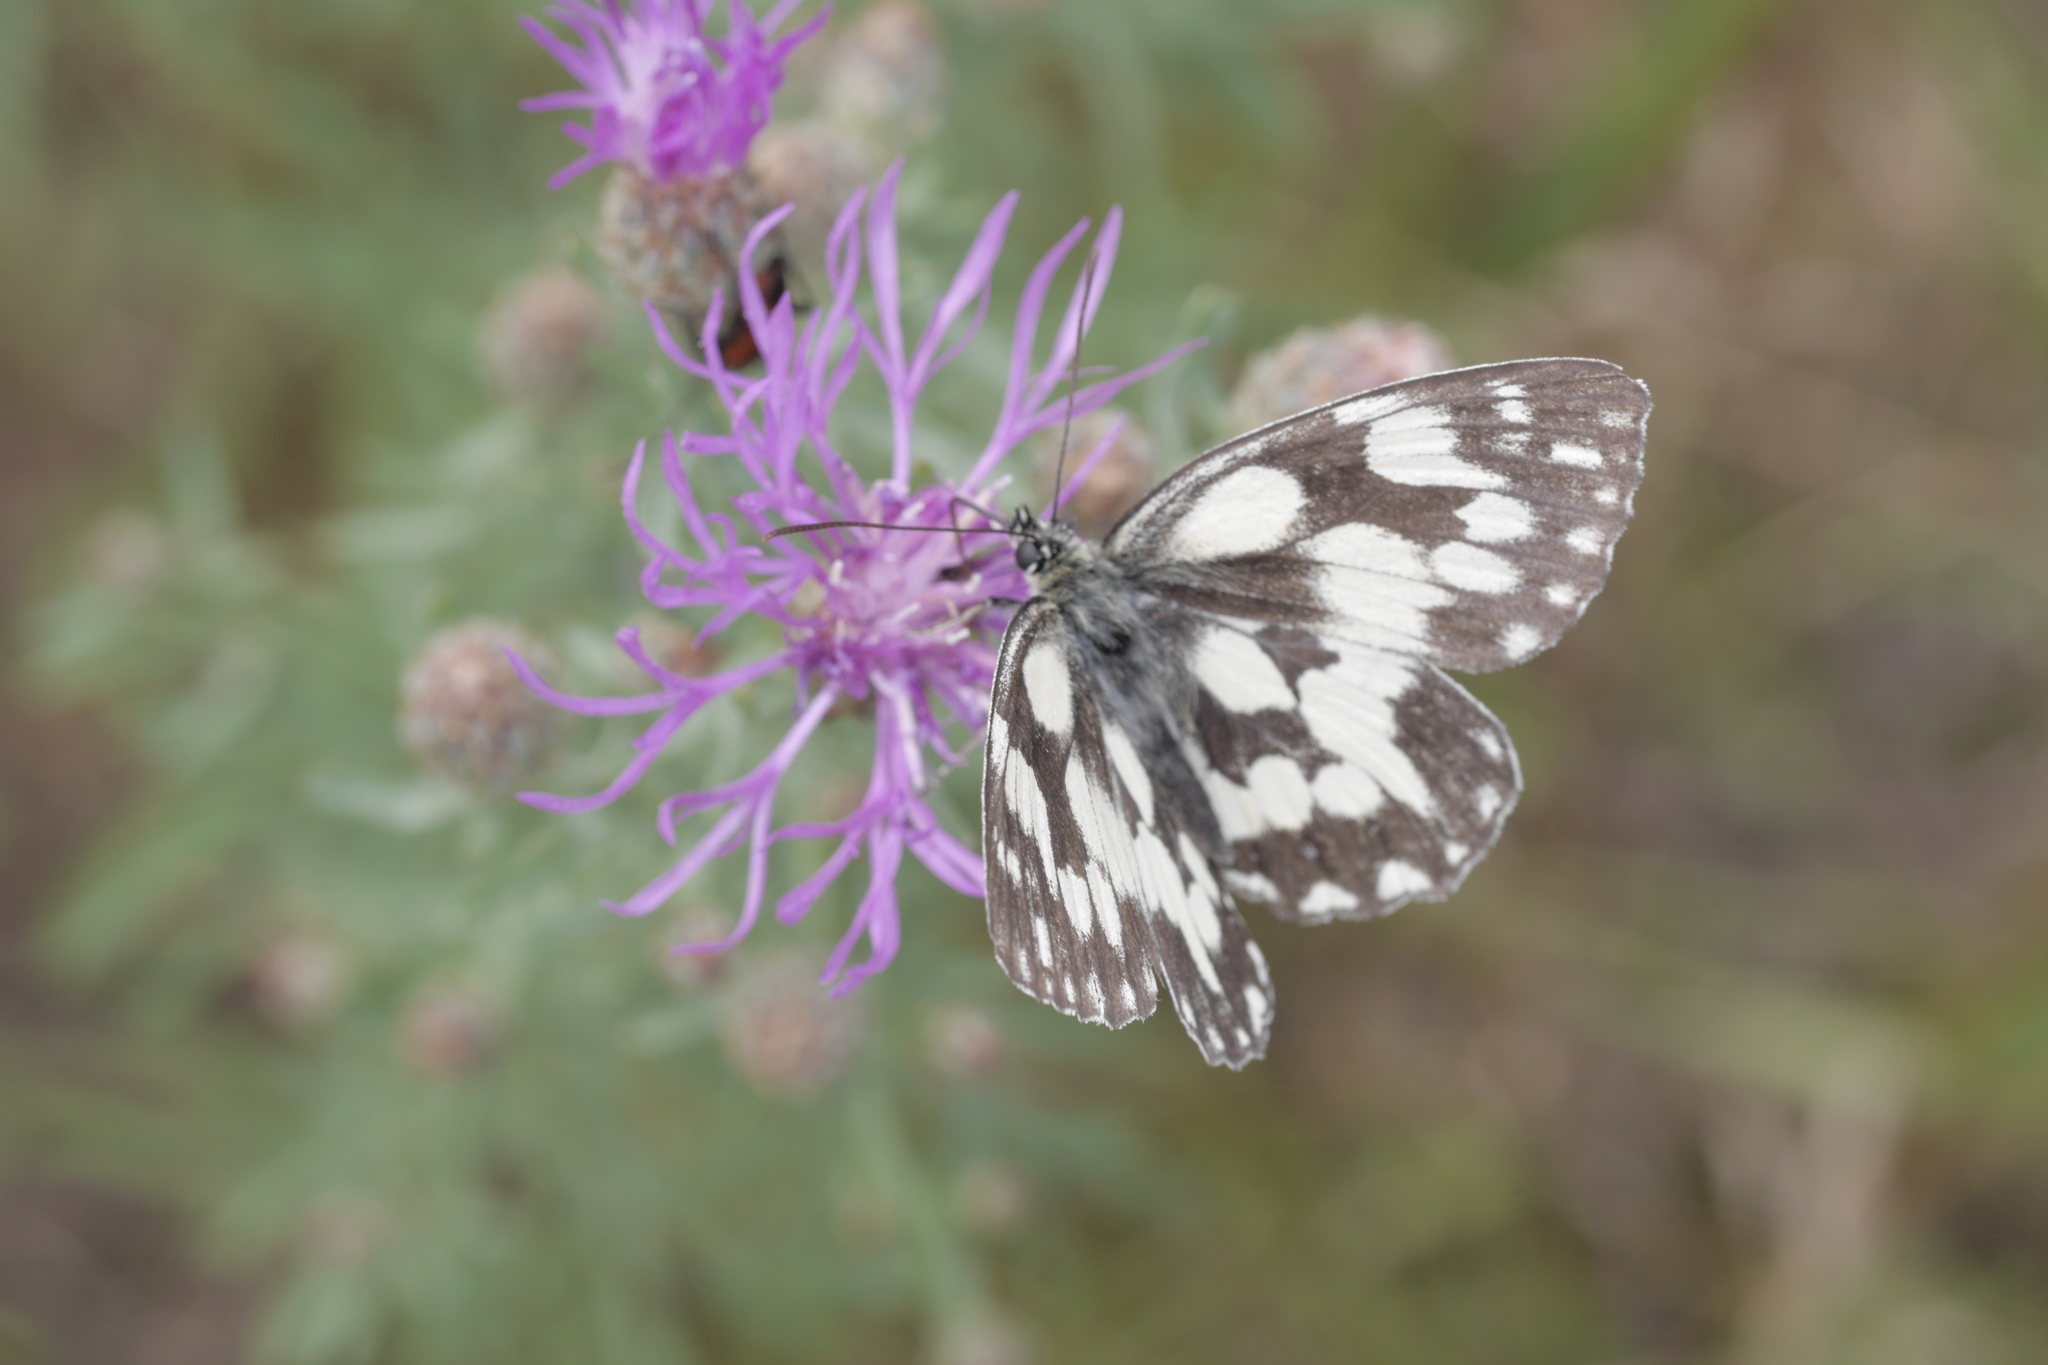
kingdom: Animalia
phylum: Arthropoda
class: Insecta
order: Lepidoptera
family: Nymphalidae
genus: Melanargia
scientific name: Melanargia galathea
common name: Marbled white
